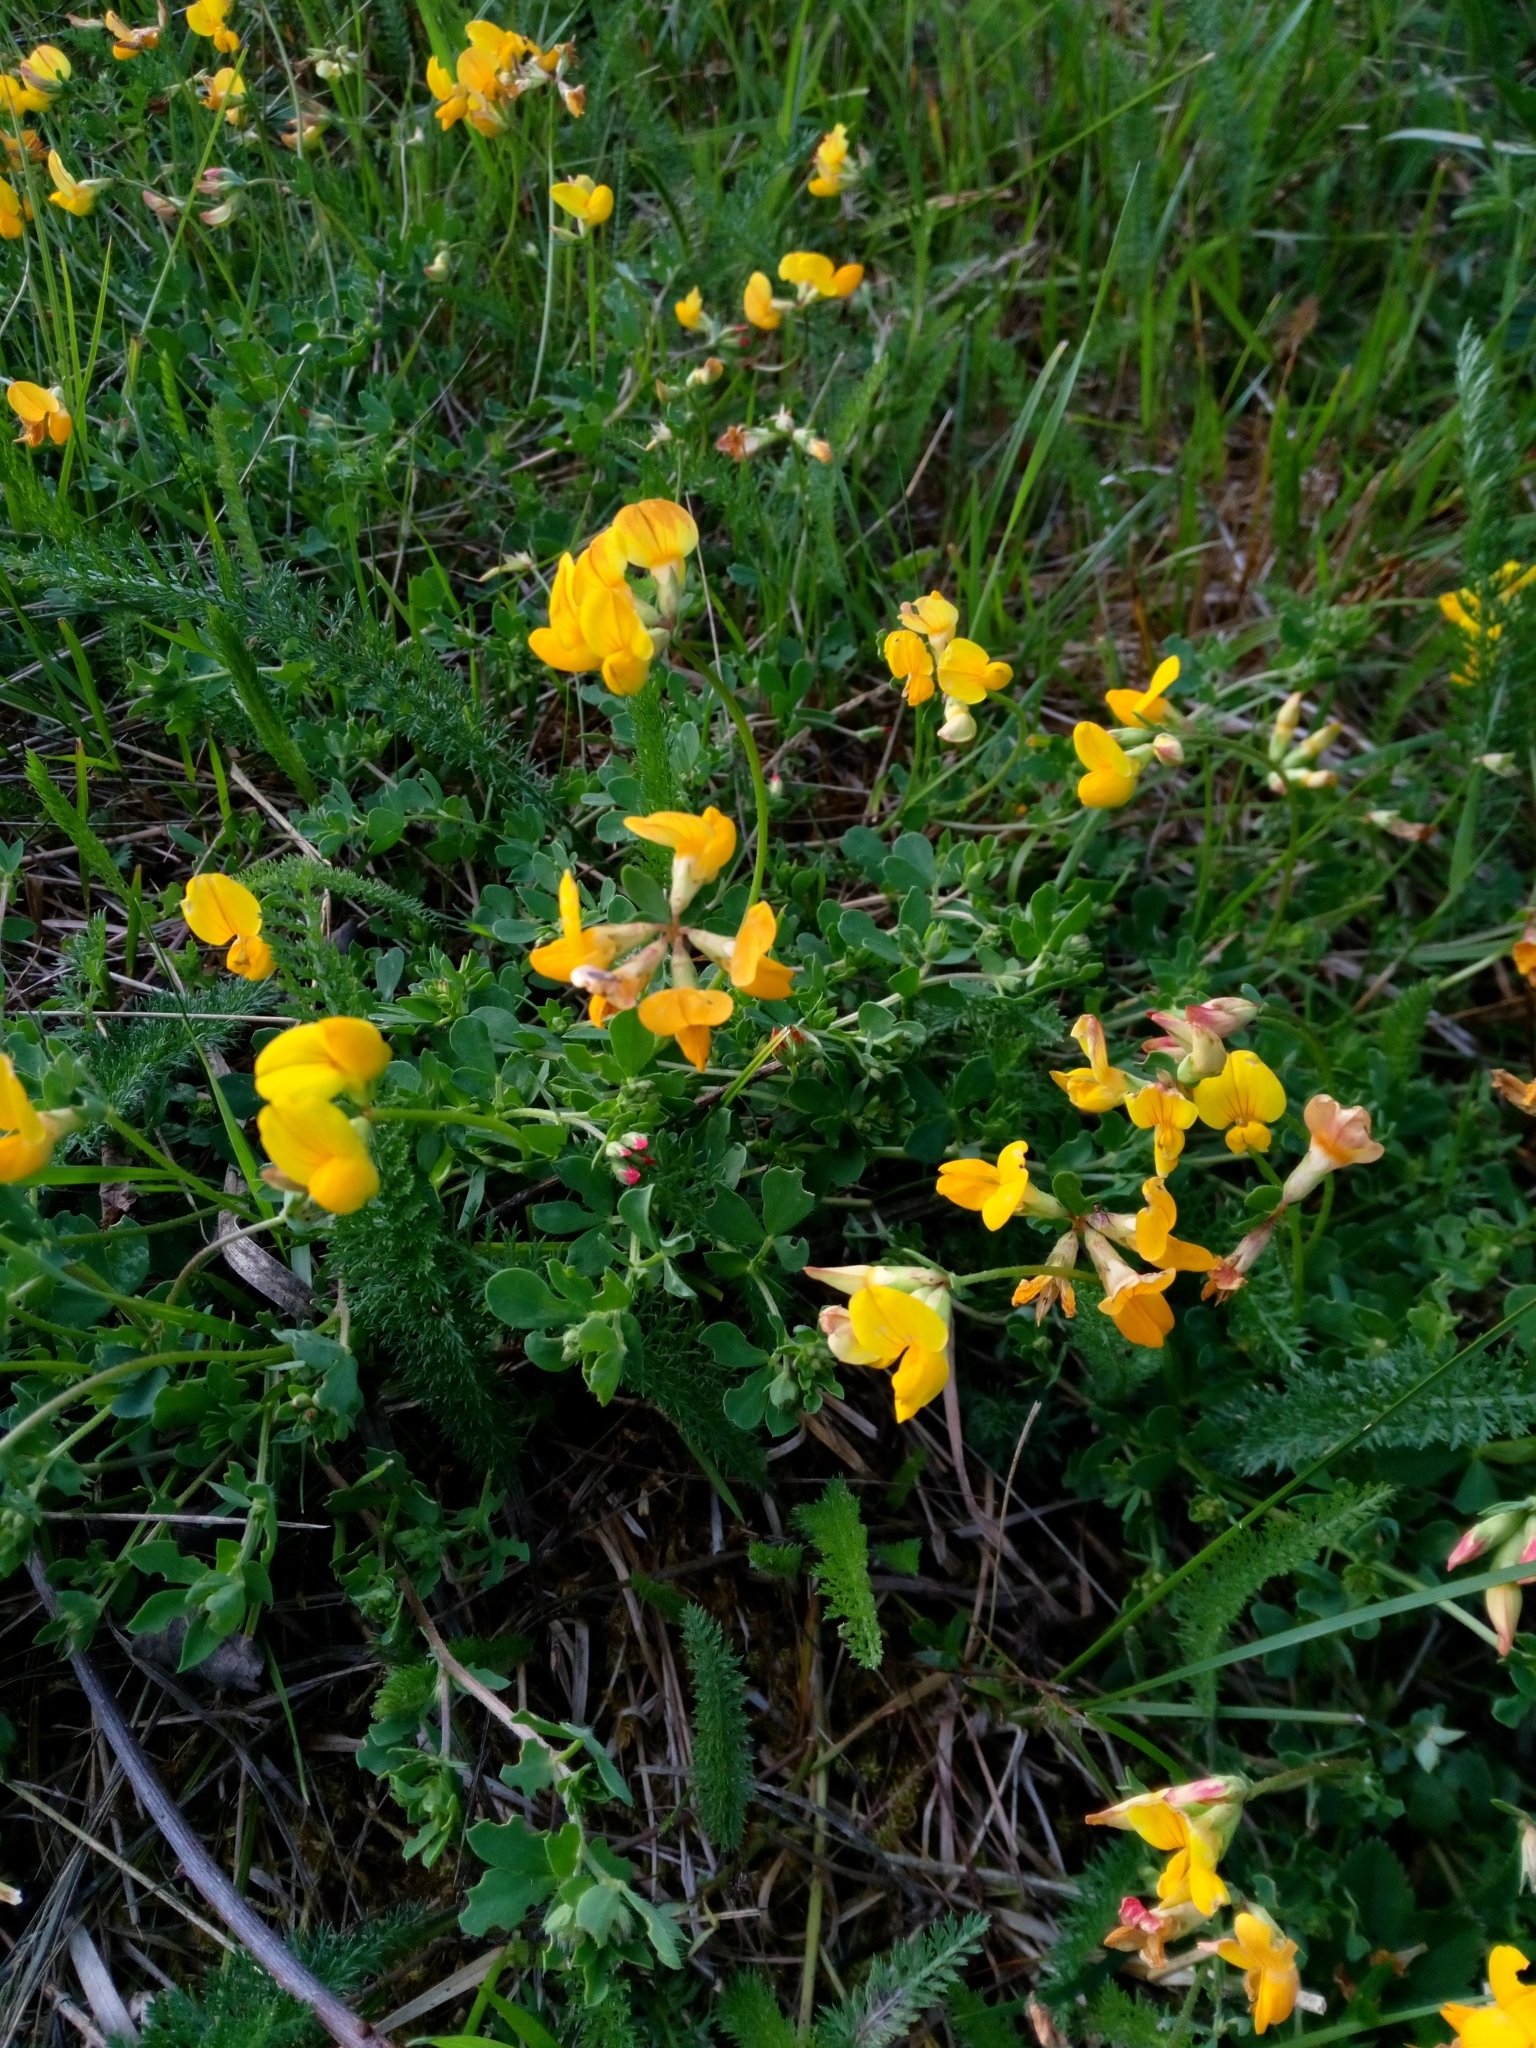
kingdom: Plantae
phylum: Tracheophyta
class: Magnoliopsida
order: Fabales
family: Fabaceae
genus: Lotus
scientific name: Lotus corniculatus
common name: Common bird's-foot-trefoil
